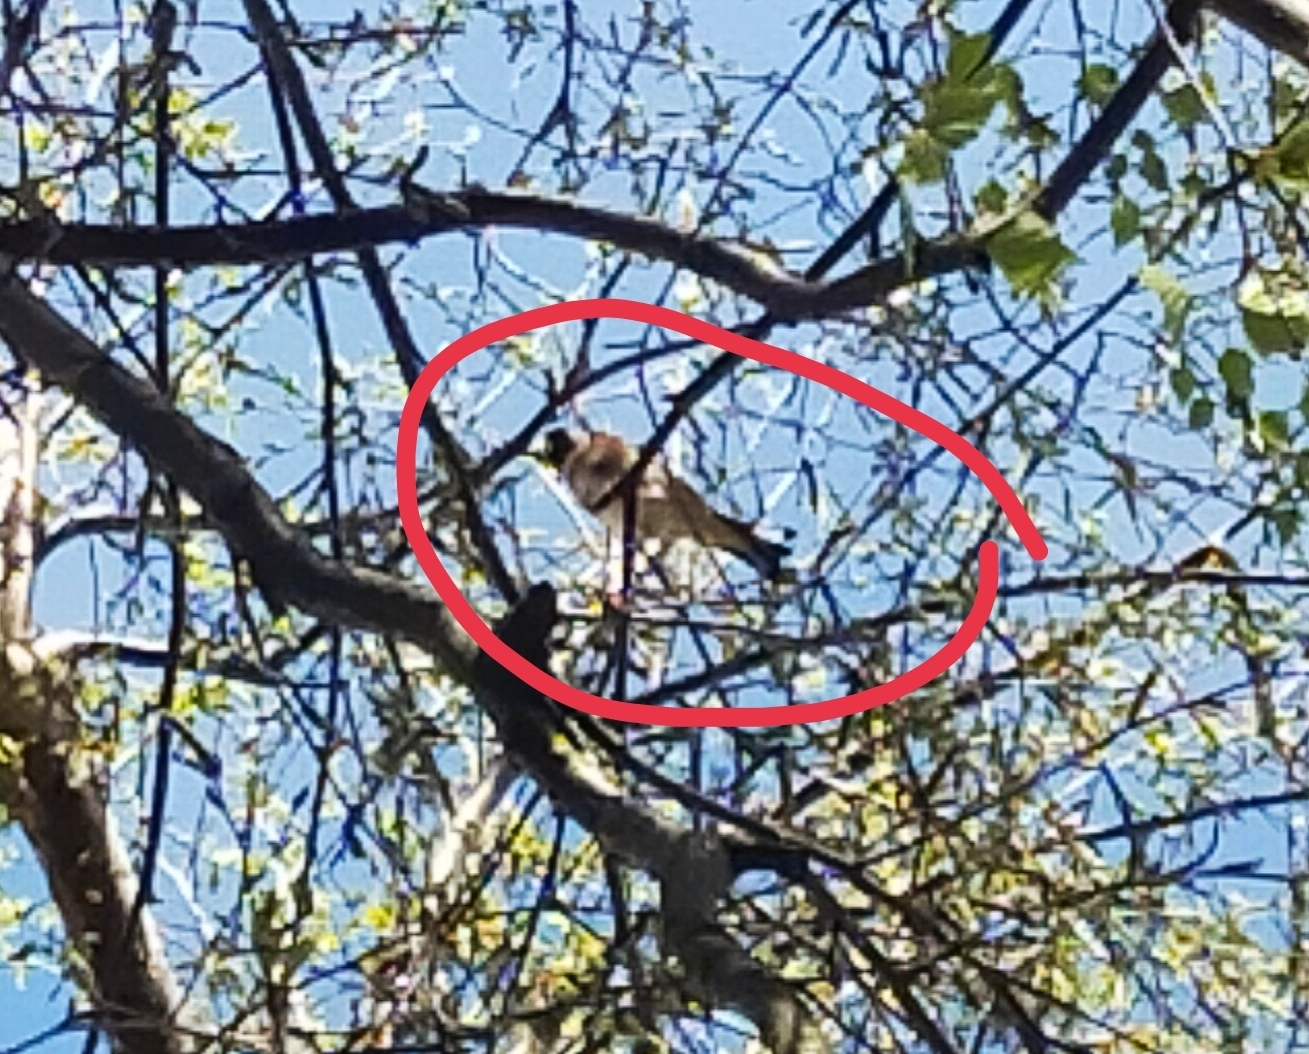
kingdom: Animalia
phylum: Chordata
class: Aves
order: Passeriformes
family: Fringillidae
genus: Carduelis
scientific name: Carduelis carduelis
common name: European goldfinch
